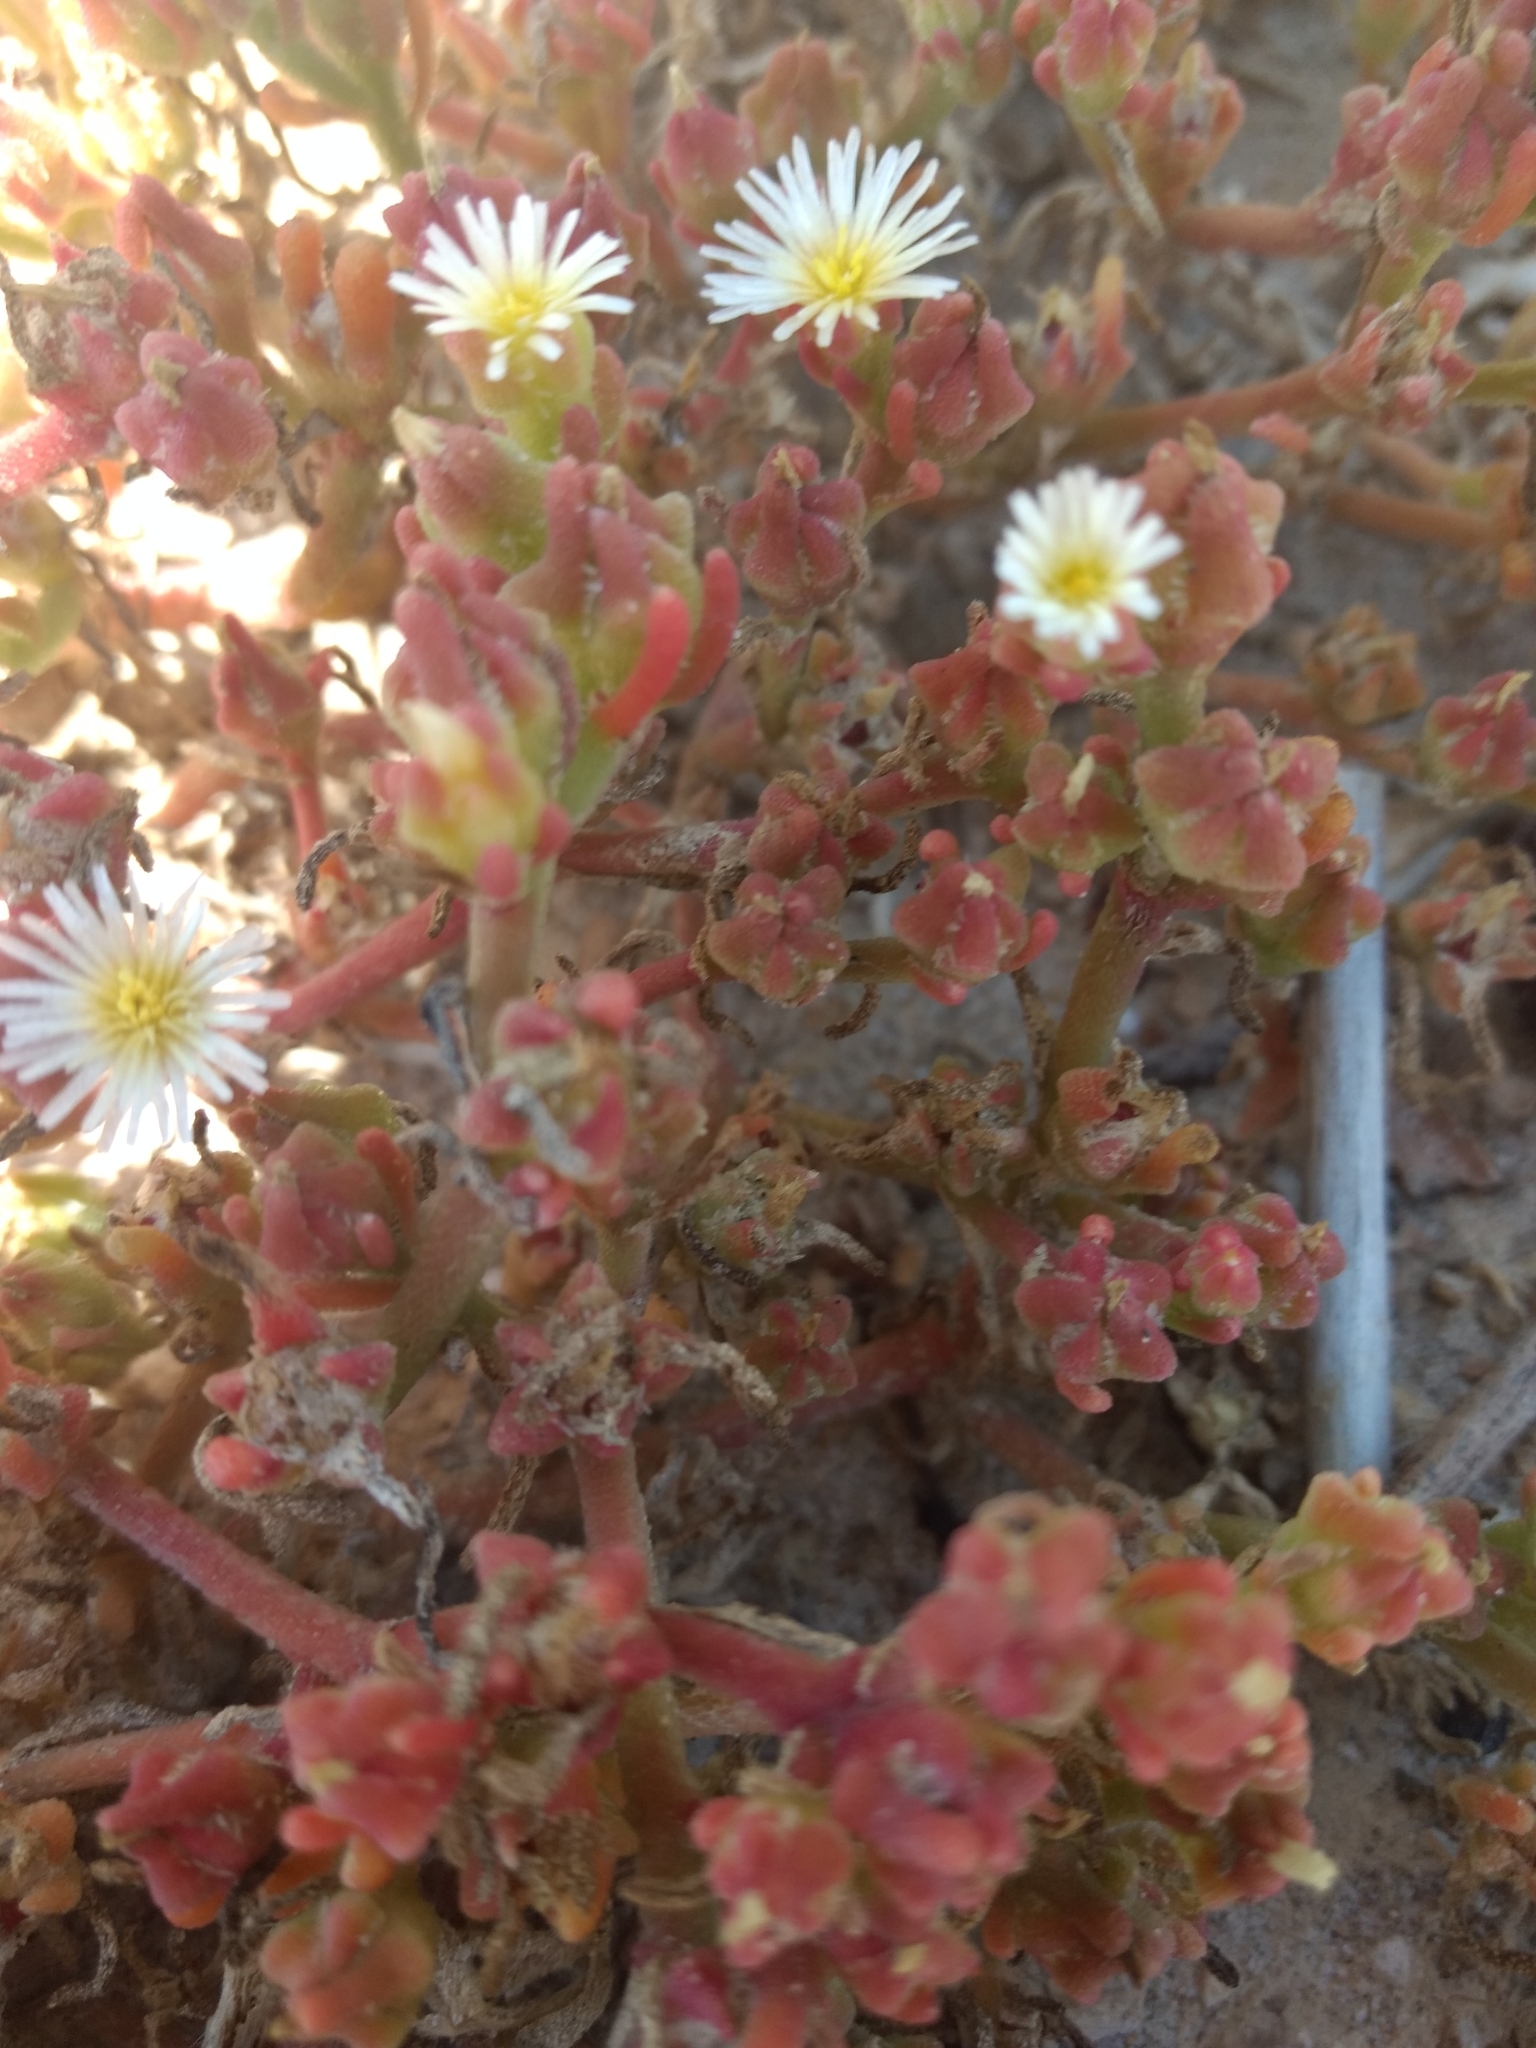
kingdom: Plantae
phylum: Tracheophyta
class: Magnoliopsida
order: Caryophyllales
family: Aizoaceae
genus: Mesembryanthemum
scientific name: Mesembryanthemum nodiflorum
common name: Slenderleaf iceplant
